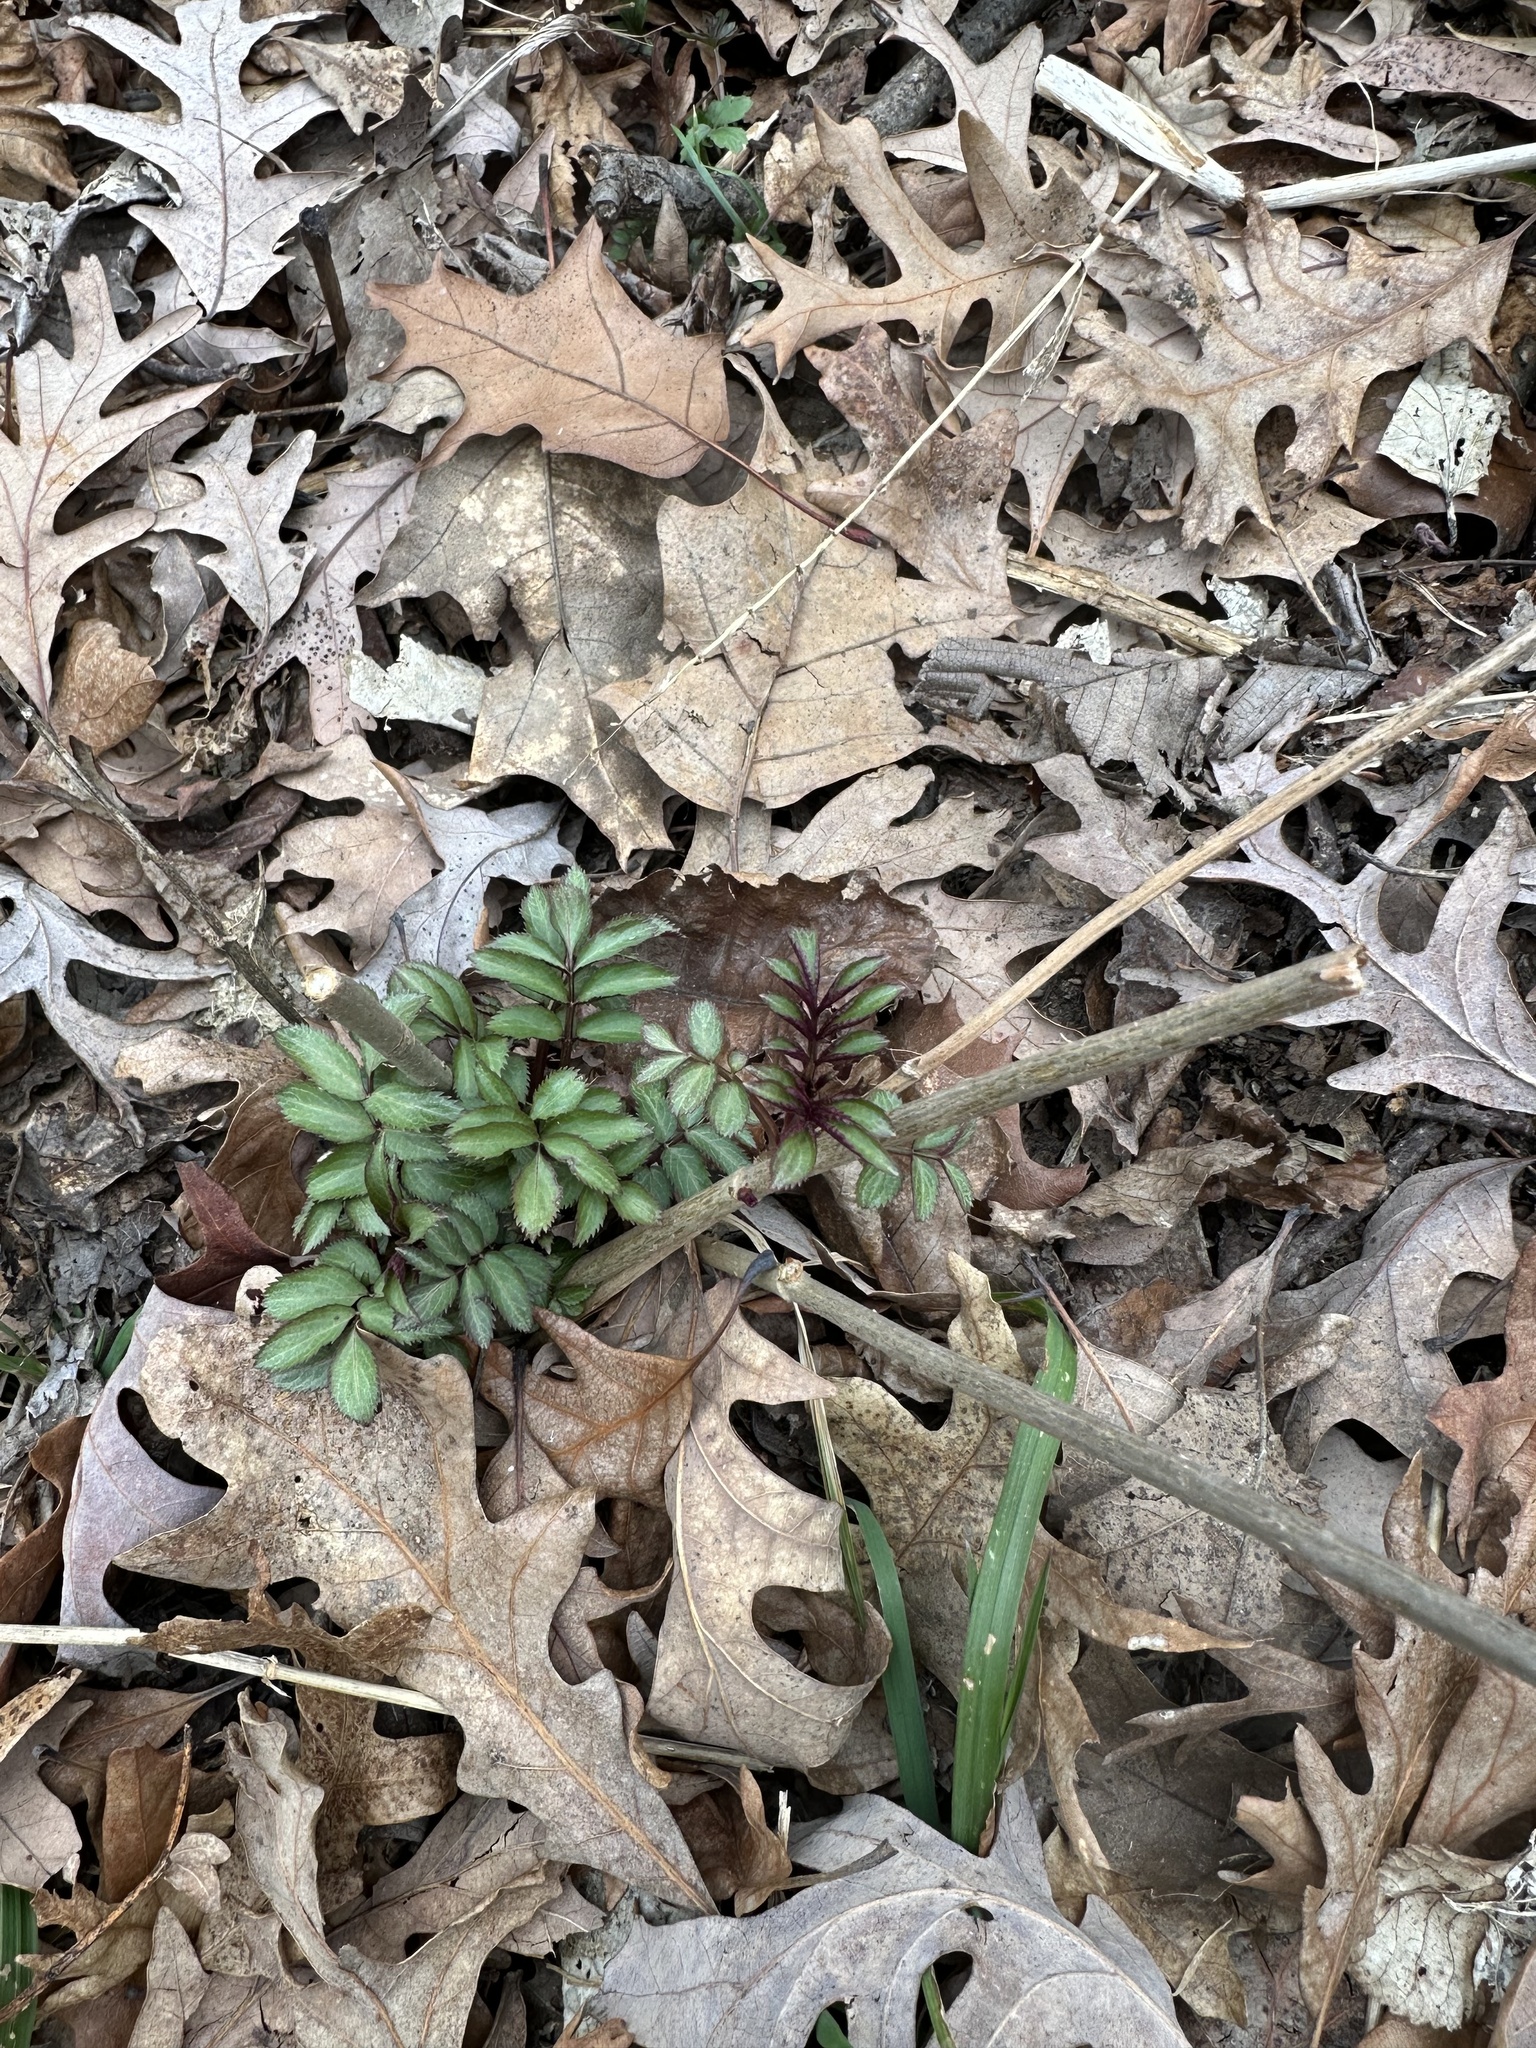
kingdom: Plantae
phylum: Tracheophyta
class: Magnoliopsida
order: Dipsacales
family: Viburnaceae
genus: Sambucus
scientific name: Sambucus canadensis
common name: American elder
